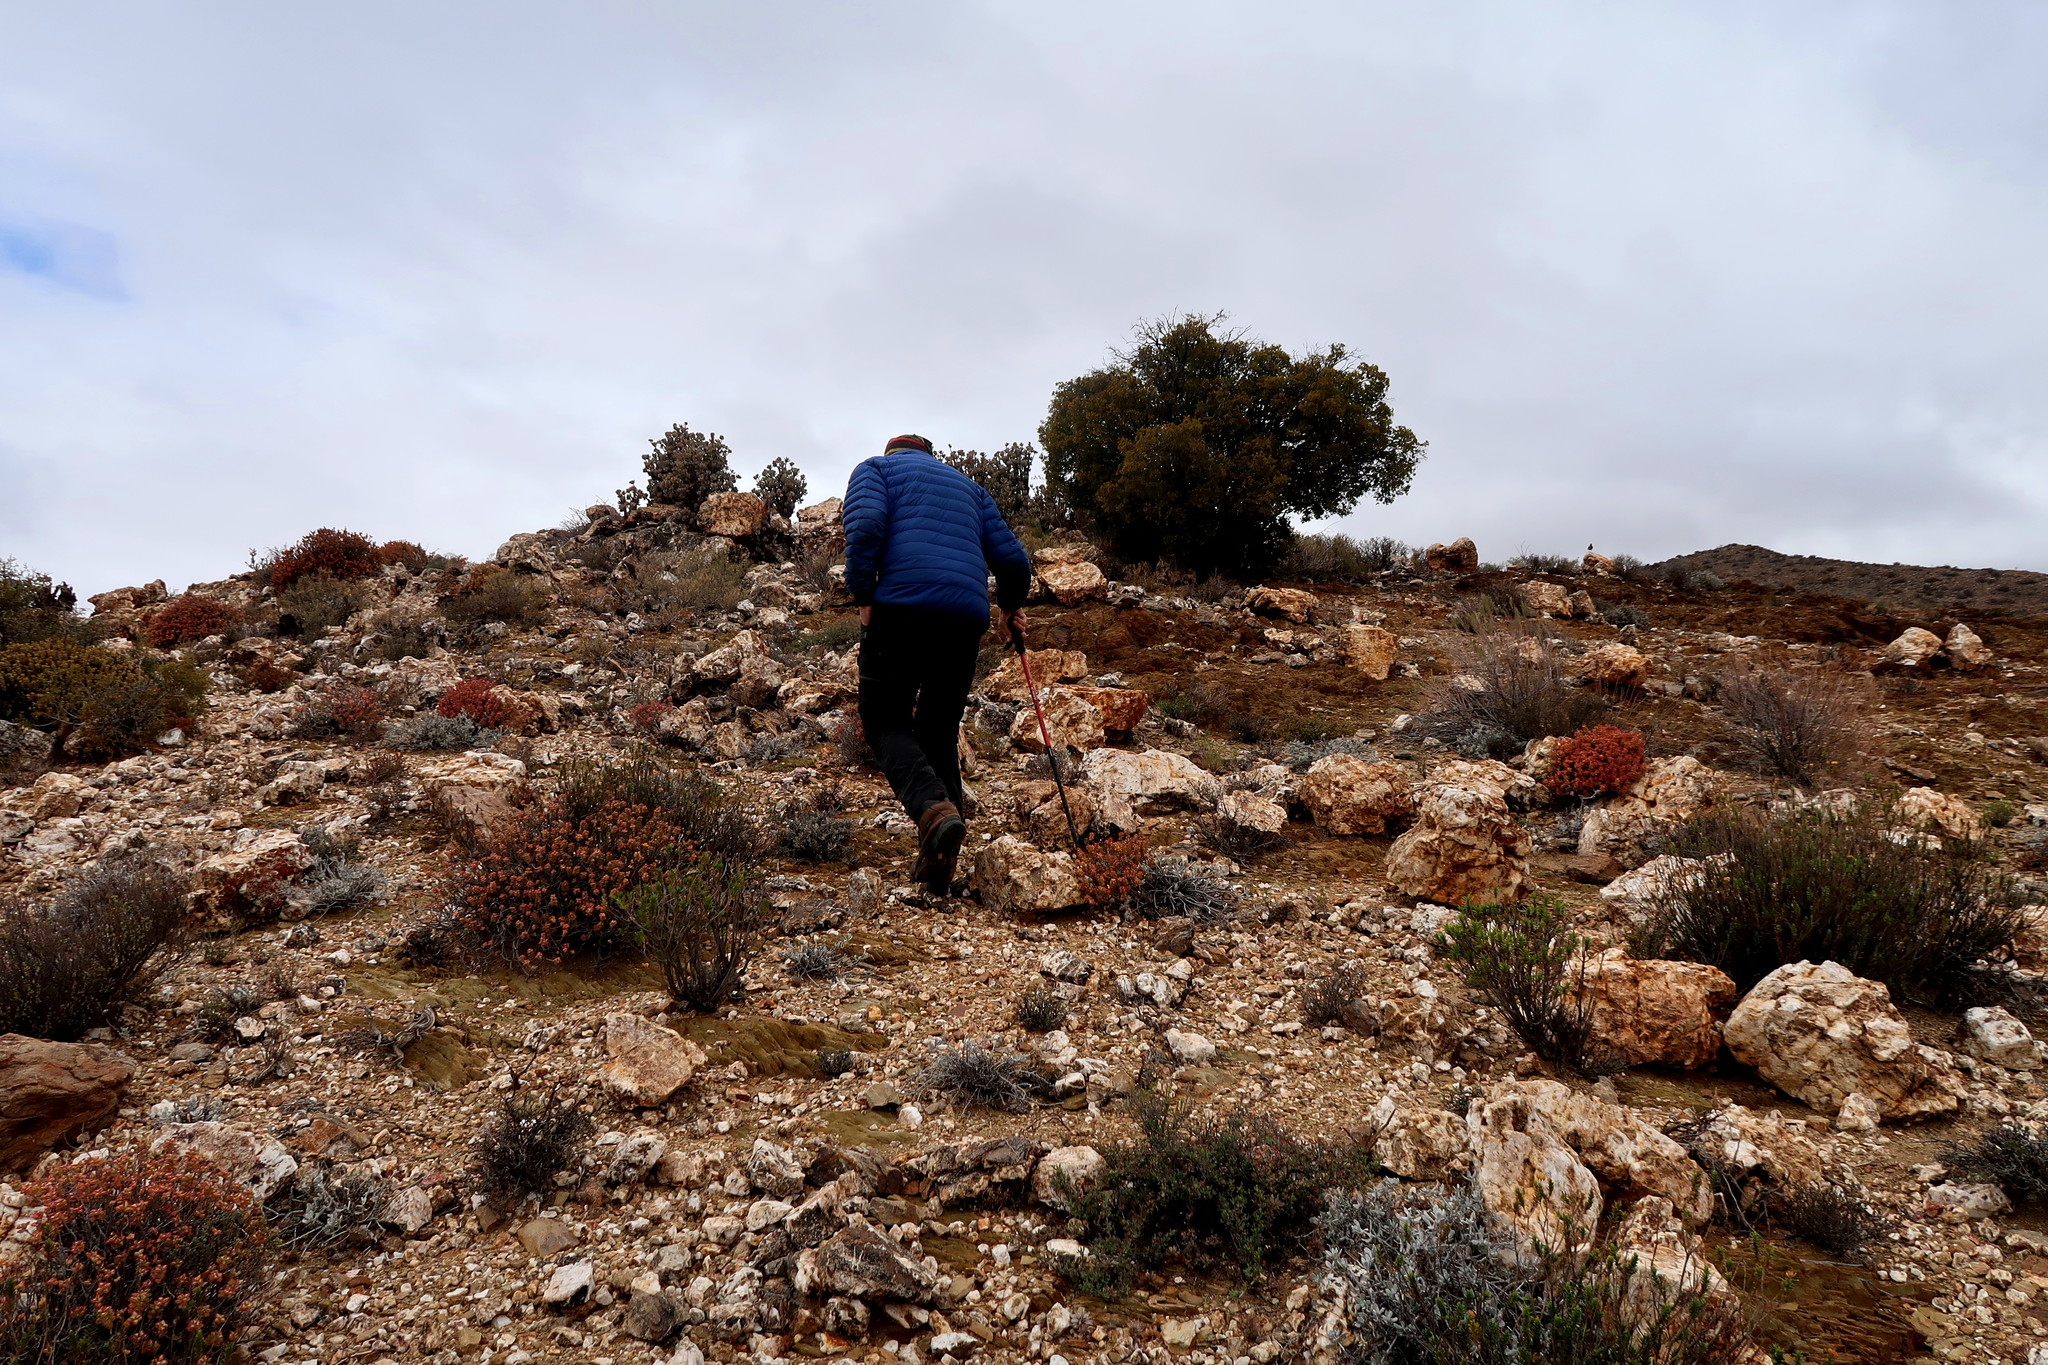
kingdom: Plantae
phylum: Tracheophyta
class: Magnoliopsida
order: Saxifragales
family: Crassulaceae
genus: Crassula
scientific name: Crassula rupestris
